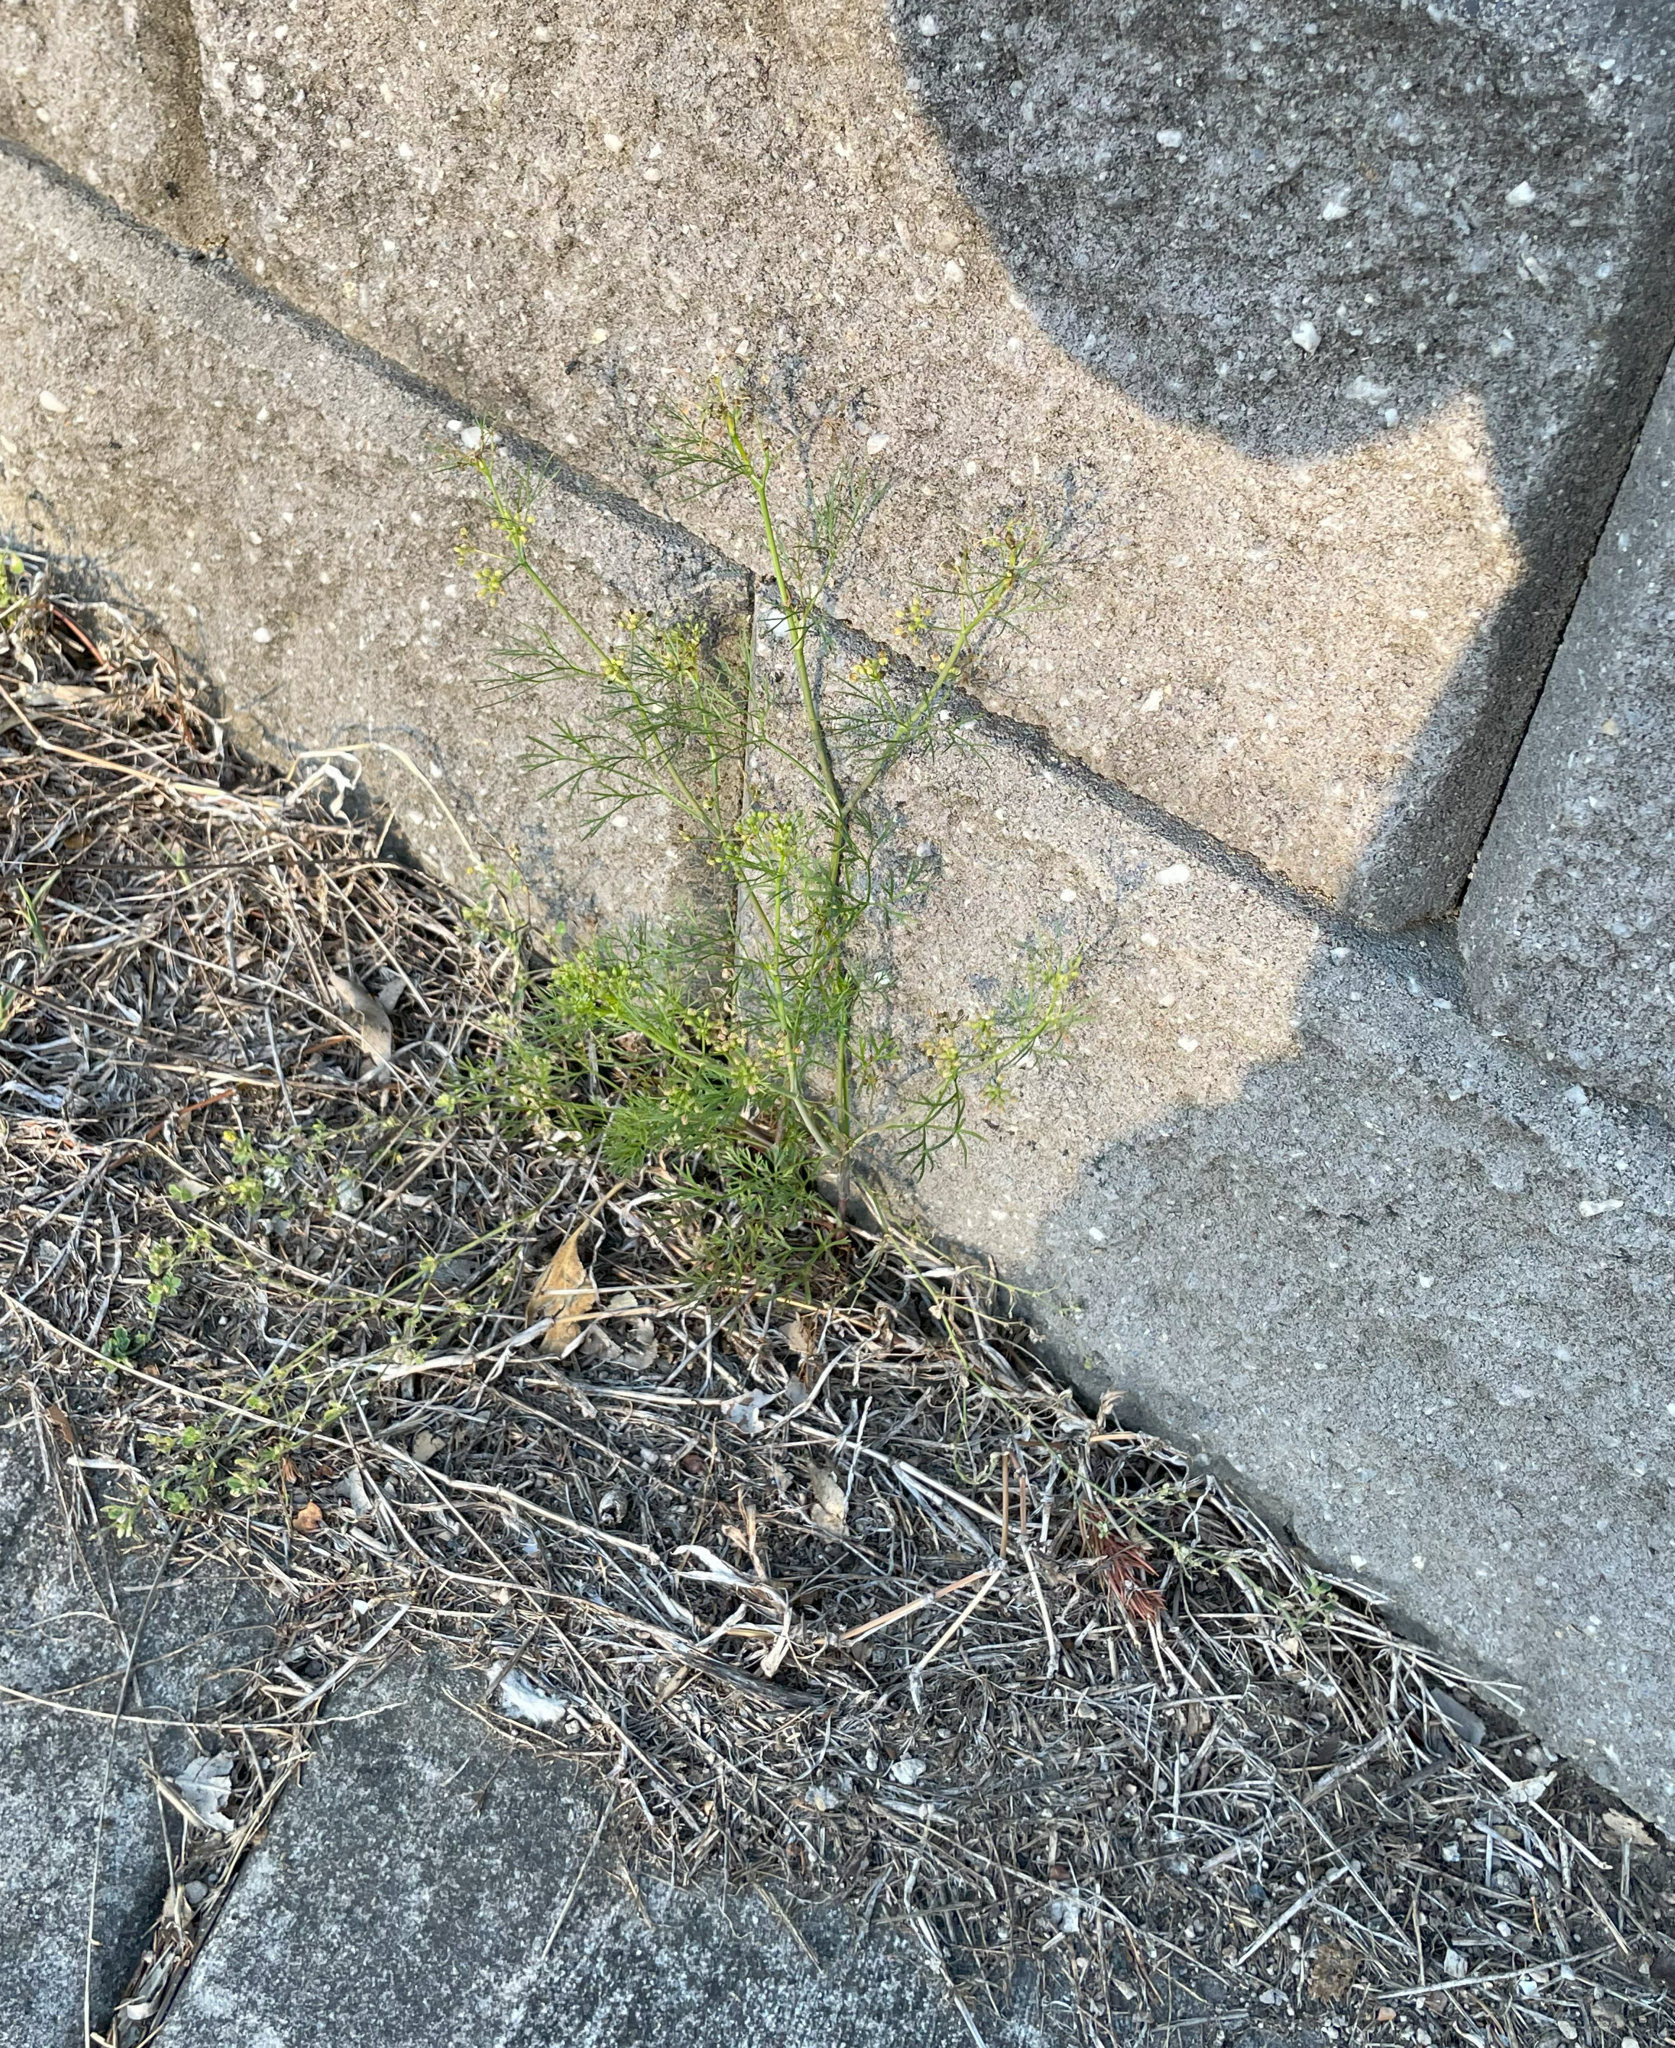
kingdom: Plantae
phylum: Tracheophyta
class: Magnoliopsida
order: Apiales
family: Apiaceae
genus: Cyclospermum
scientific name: Cyclospermum leptophyllum
